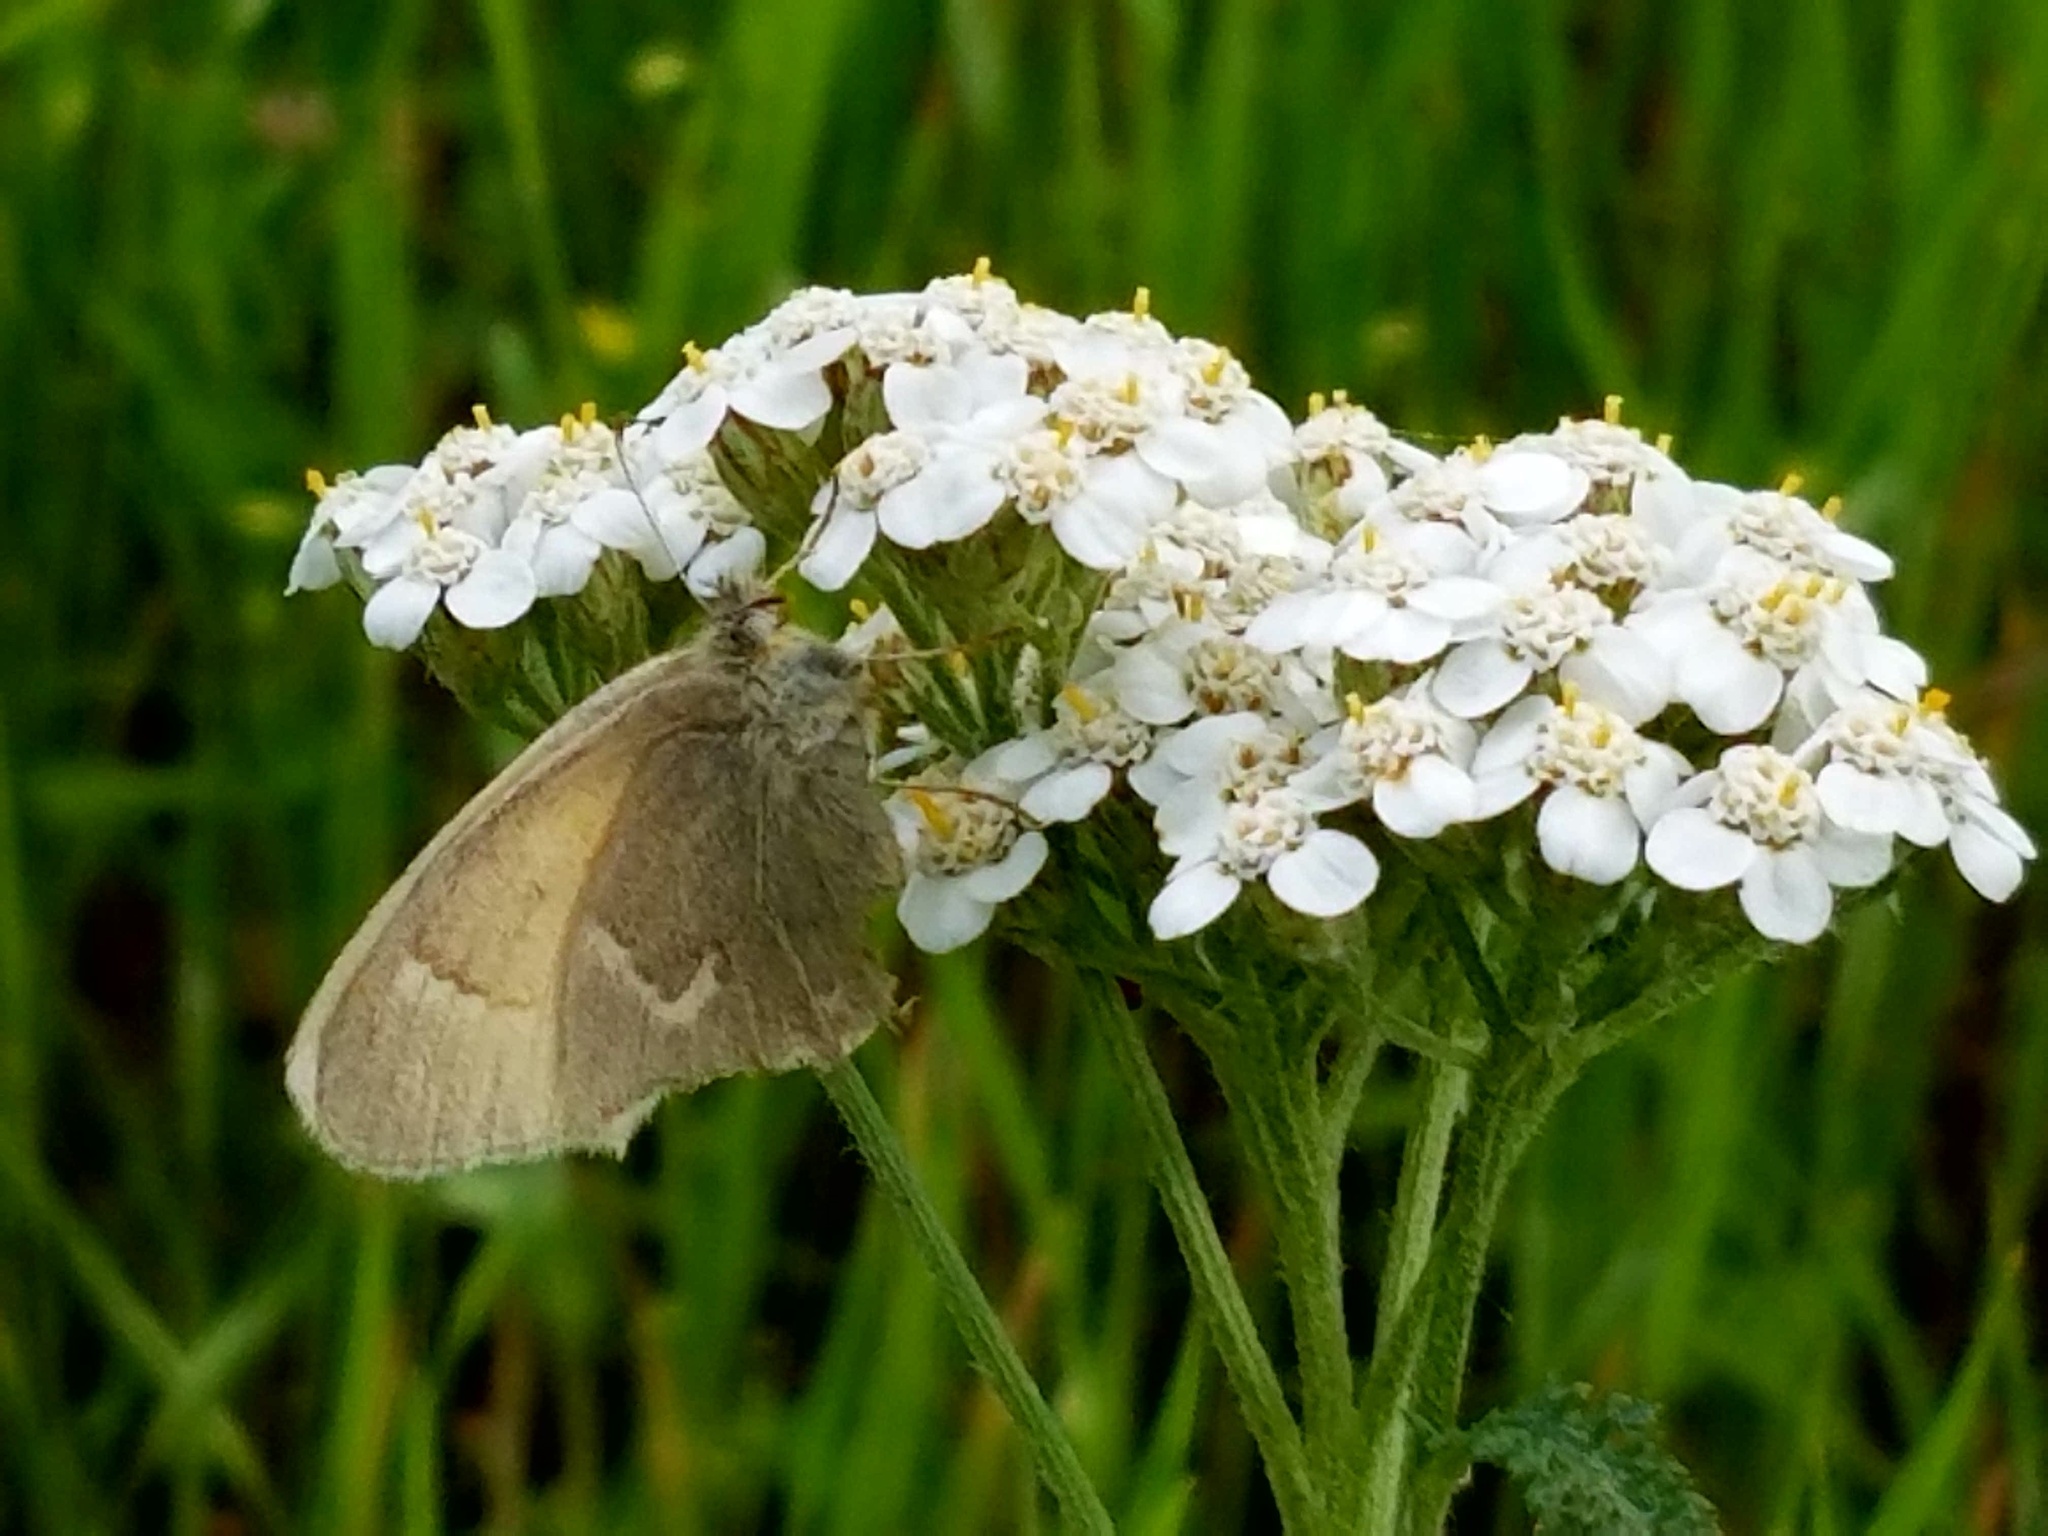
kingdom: Animalia
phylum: Arthropoda
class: Insecta
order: Lepidoptera
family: Nymphalidae
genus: Coenonympha
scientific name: Coenonympha california
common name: Common ringlet
